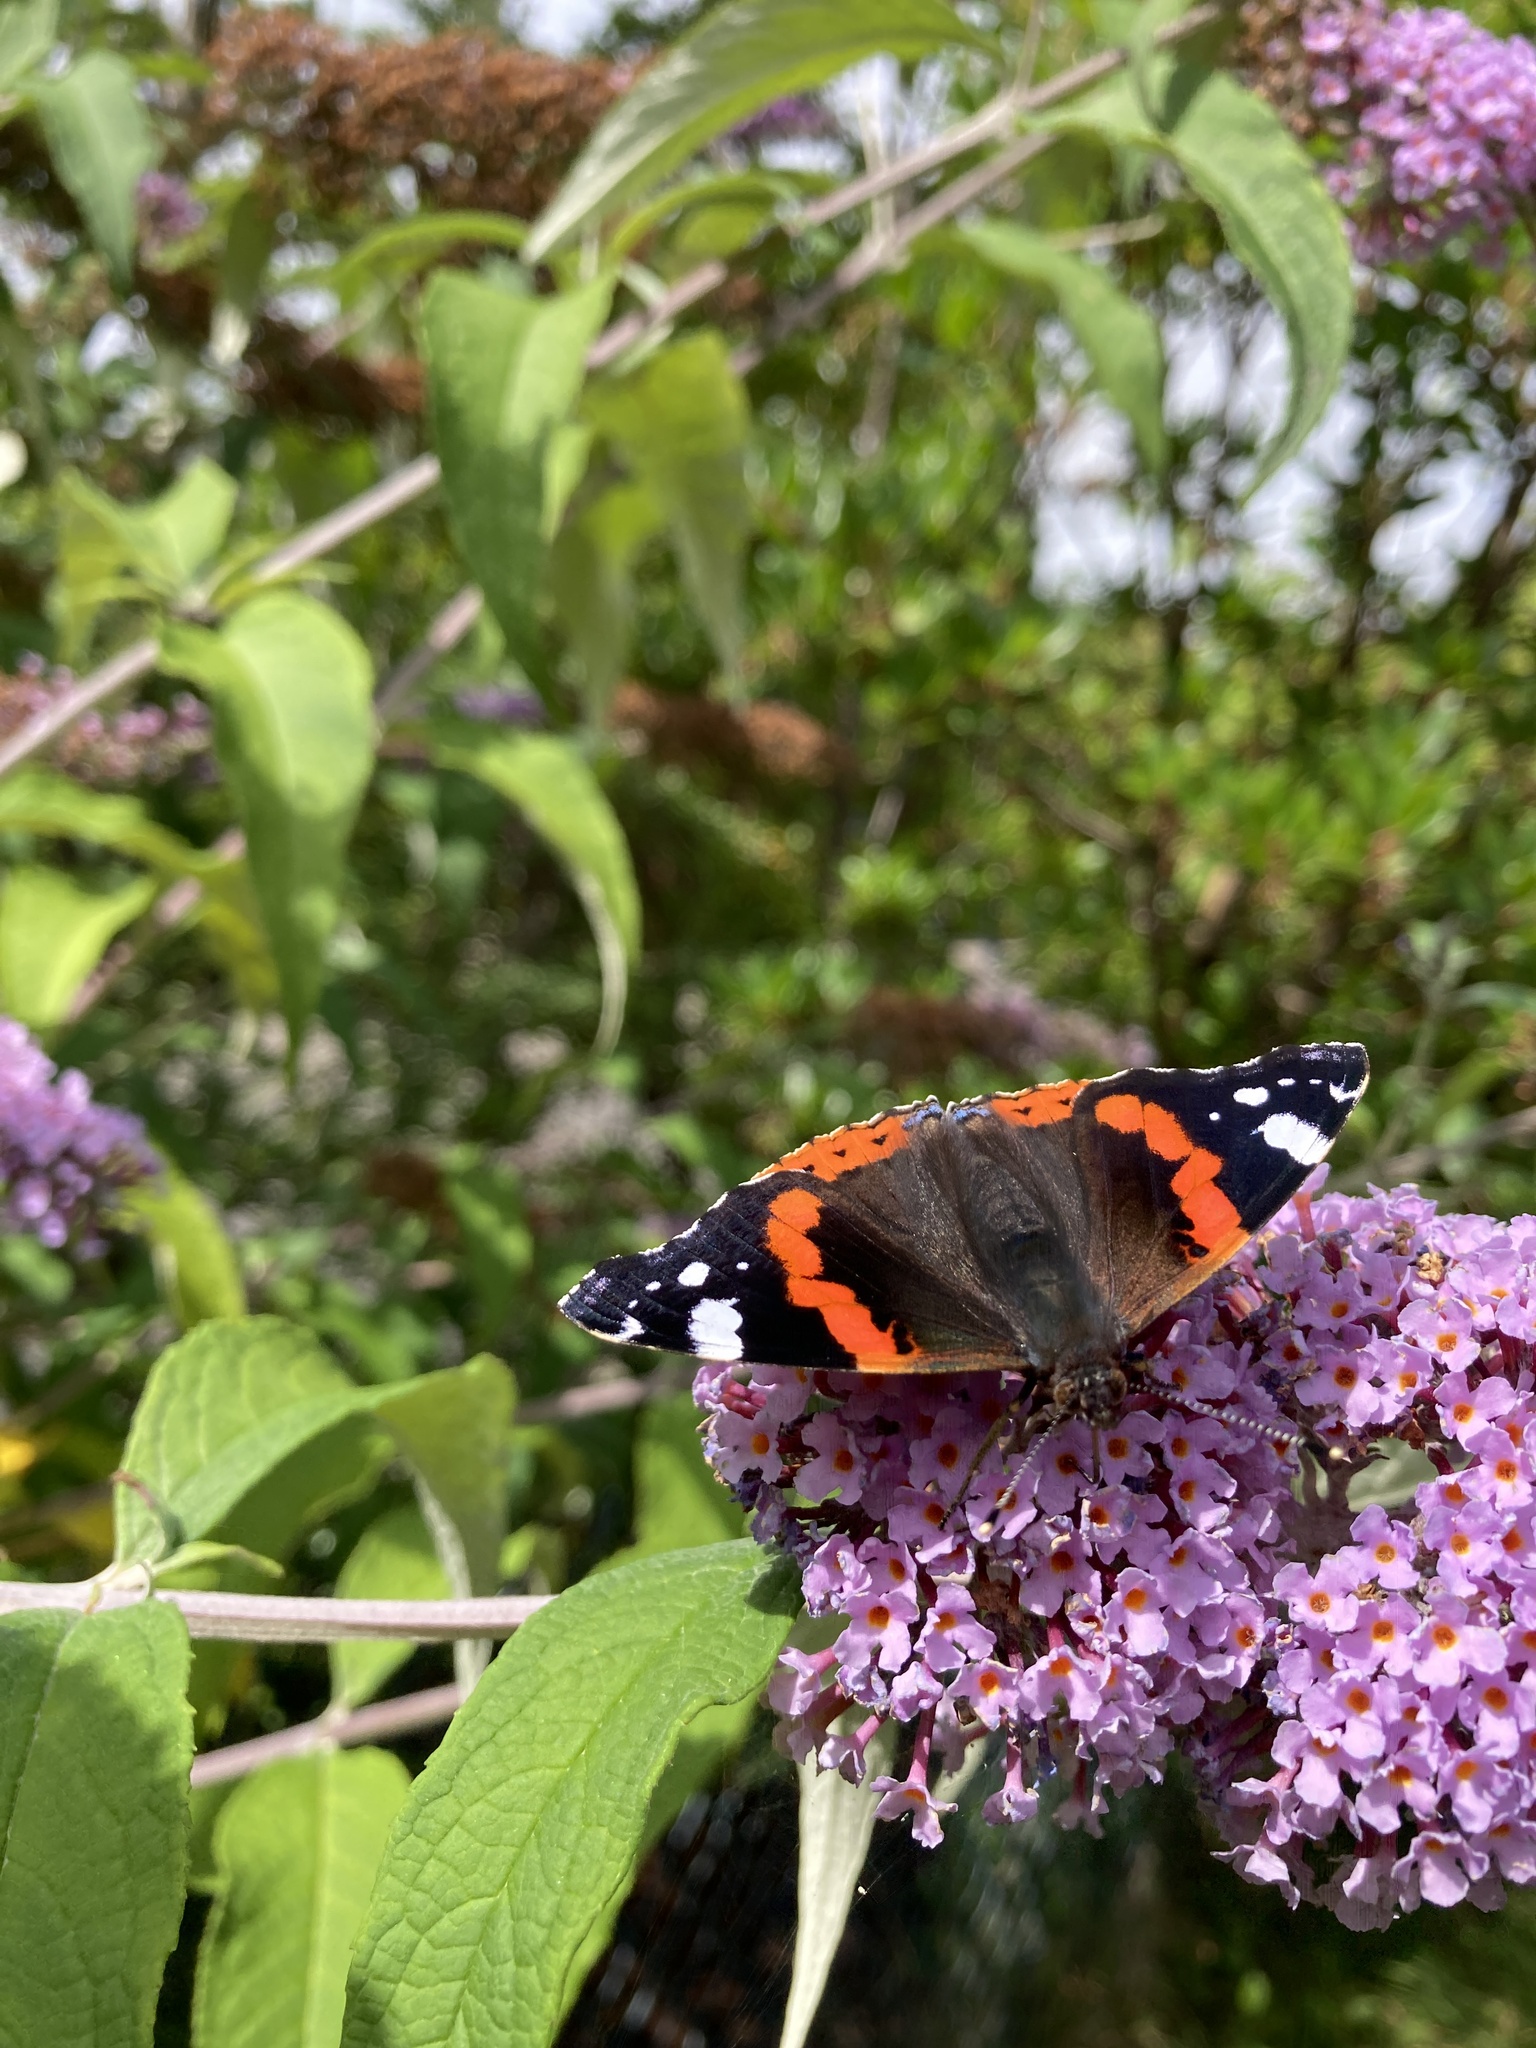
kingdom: Animalia
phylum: Arthropoda
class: Insecta
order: Lepidoptera
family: Nymphalidae
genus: Vanessa
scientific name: Vanessa atalanta
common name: Red admiral
